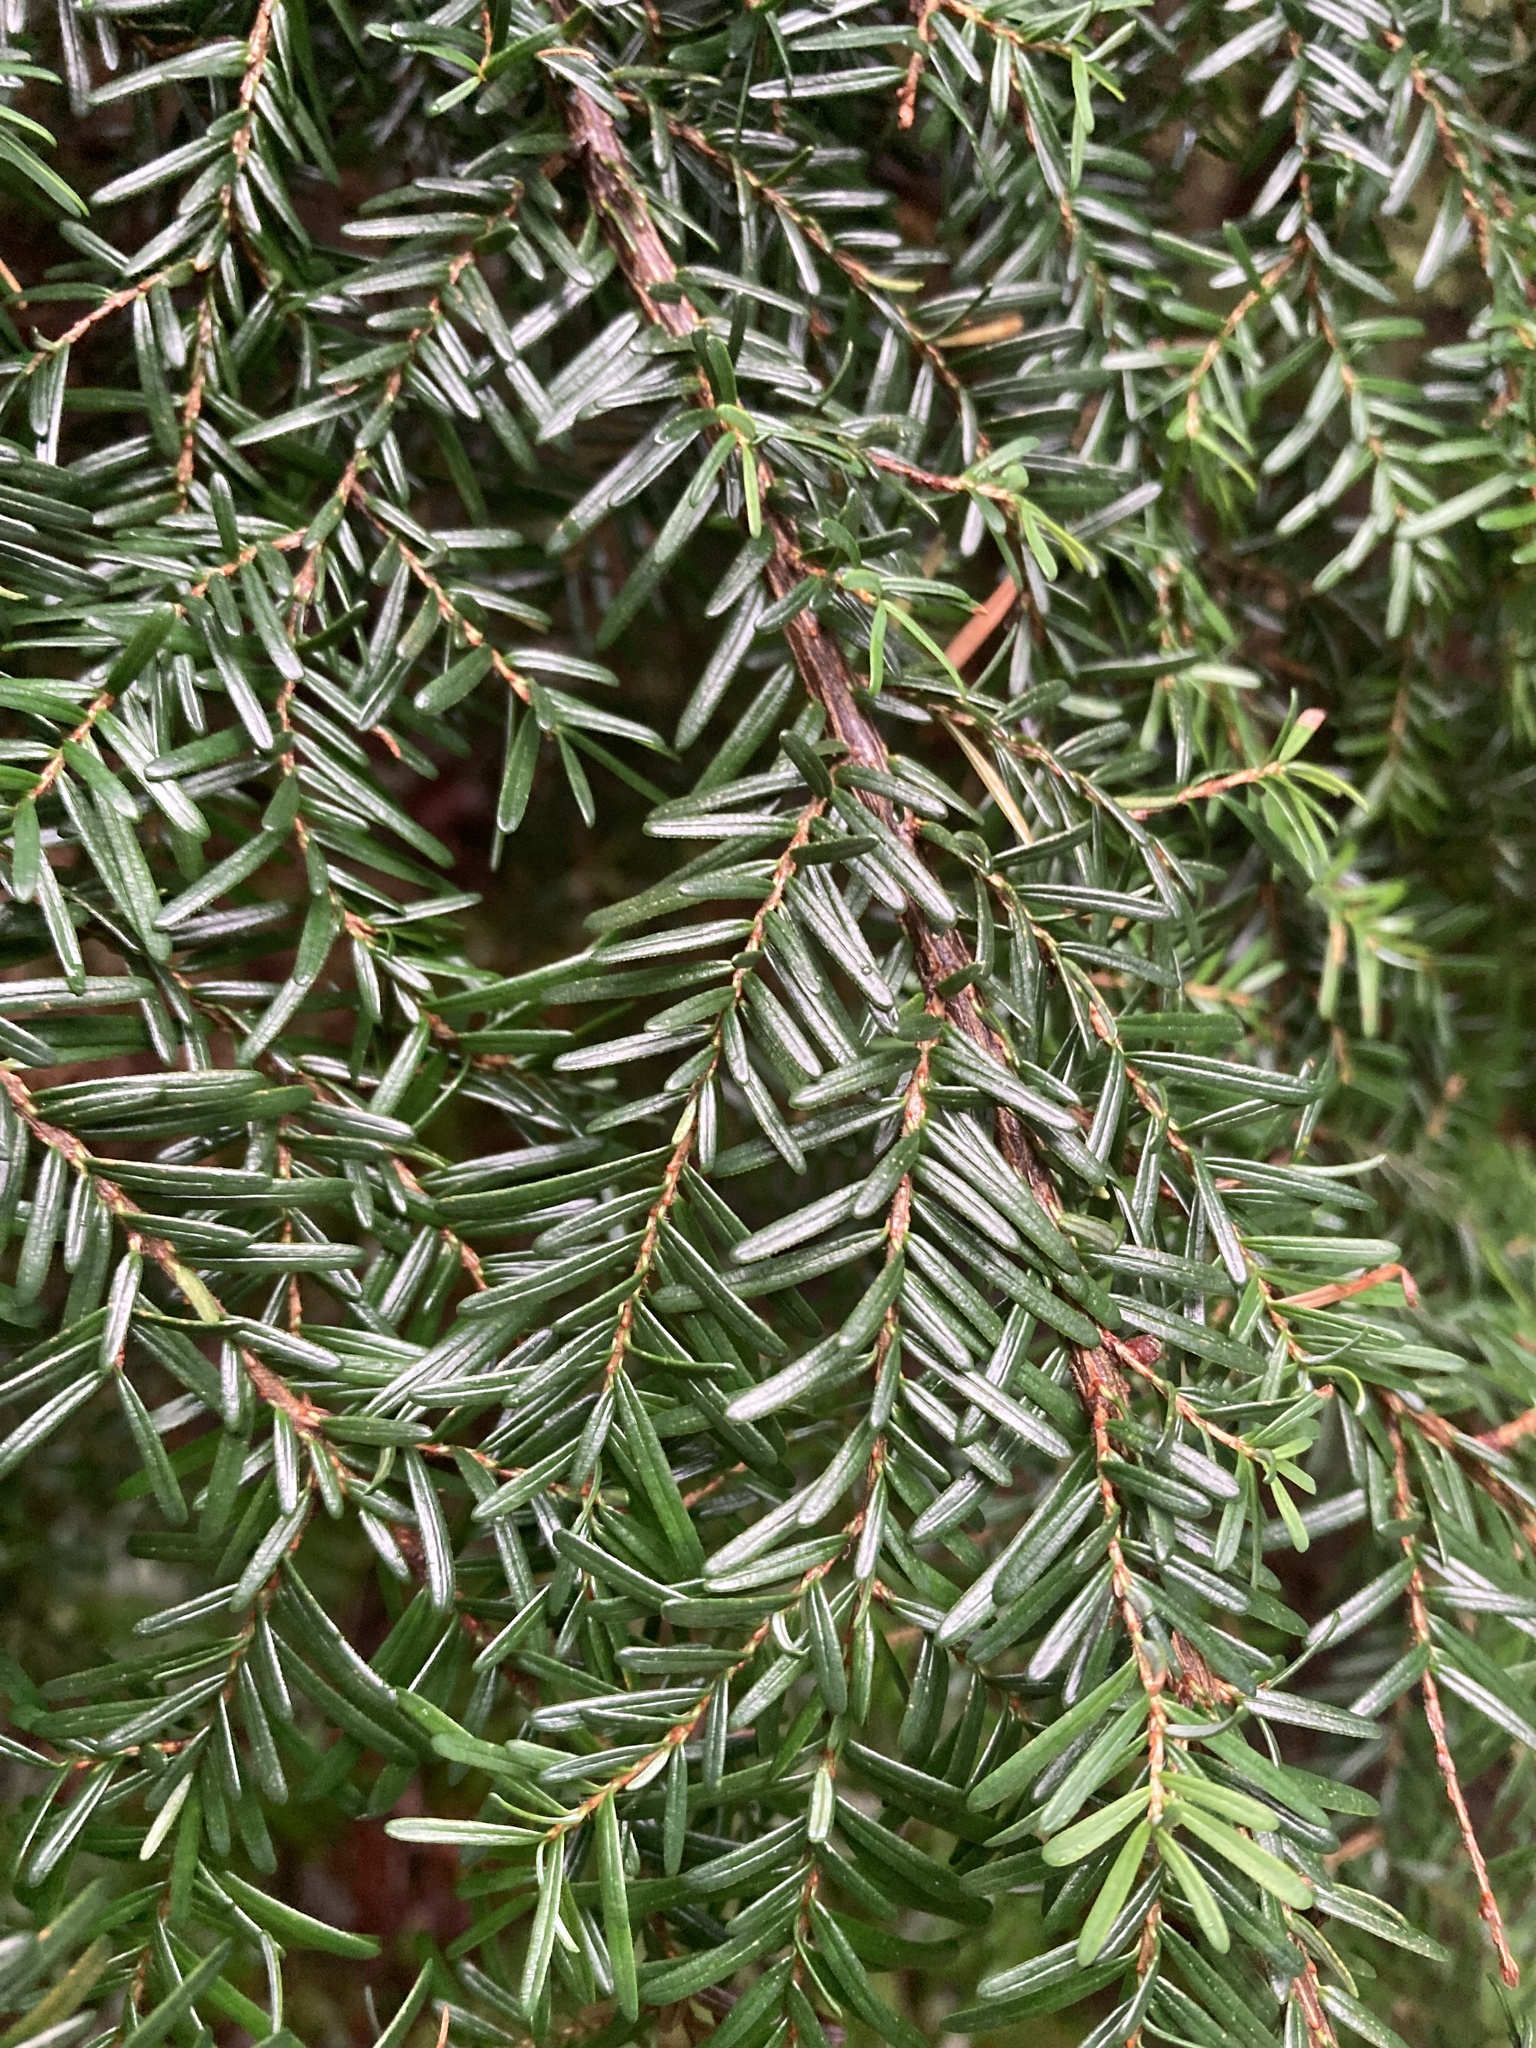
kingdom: Plantae
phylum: Tracheophyta
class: Pinopsida
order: Pinales
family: Pinaceae
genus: Tsuga
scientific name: Tsuga heterophylla
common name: Western hemlock
